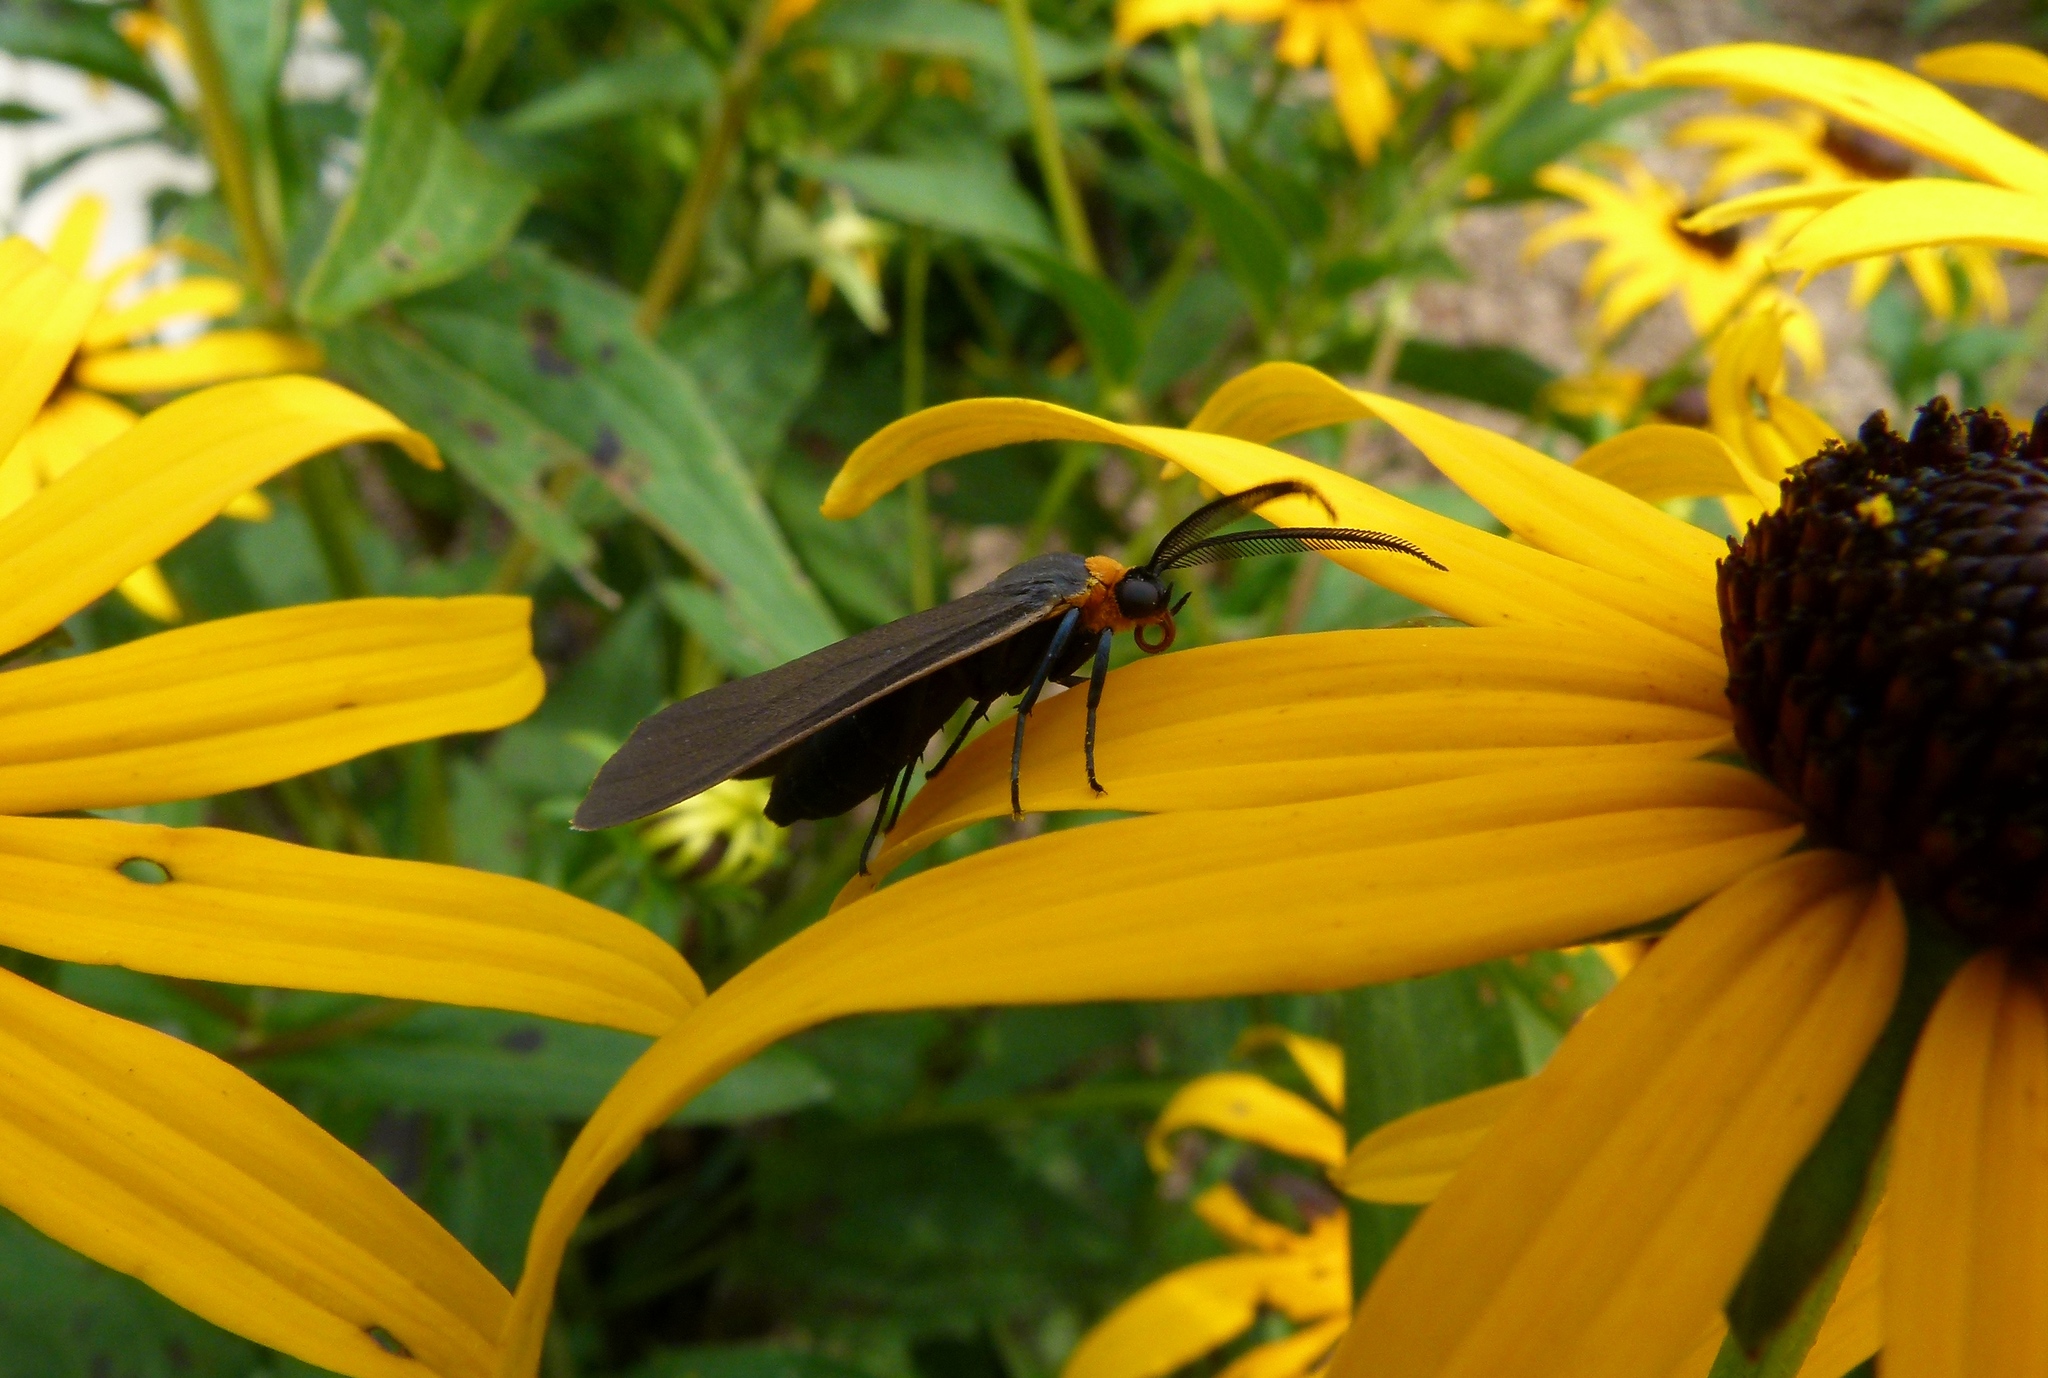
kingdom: Animalia
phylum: Arthropoda
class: Insecta
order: Lepidoptera
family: Erebidae
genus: Cisseps
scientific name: Cisseps fulvicollis
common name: Yellow-collared scape moth
